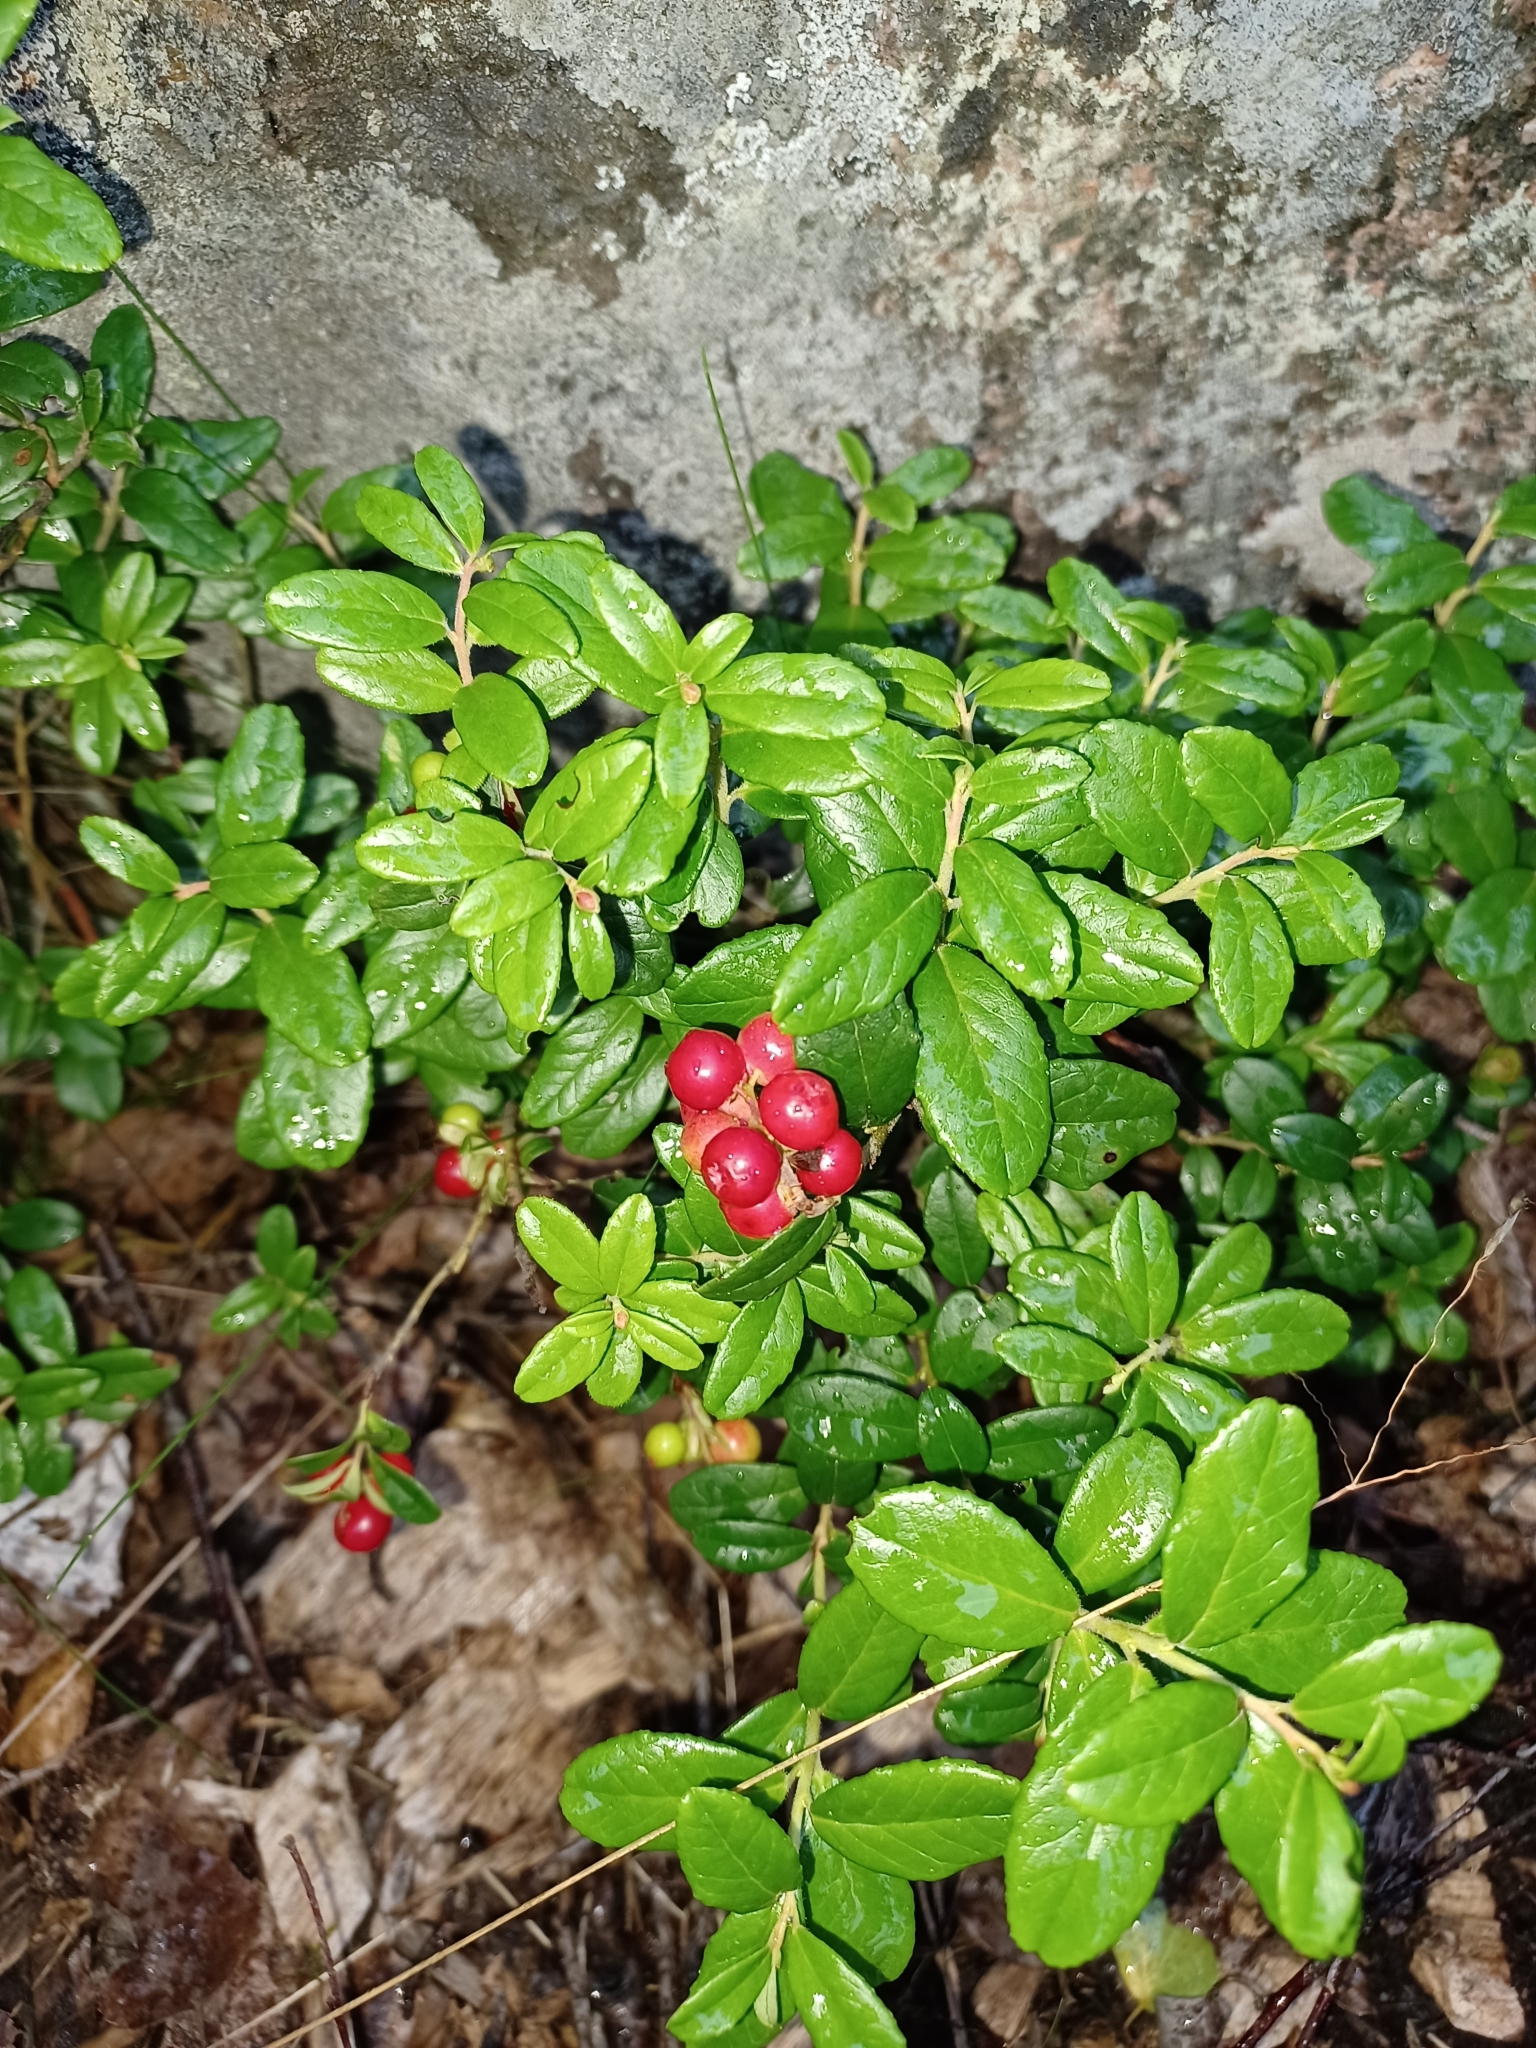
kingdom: Plantae
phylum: Tracheophyta
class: Magnoliopsida
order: Ericales
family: Ericaceae
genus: Vaccinium
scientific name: Vaccinium vitis-idaea
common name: Cowberry
